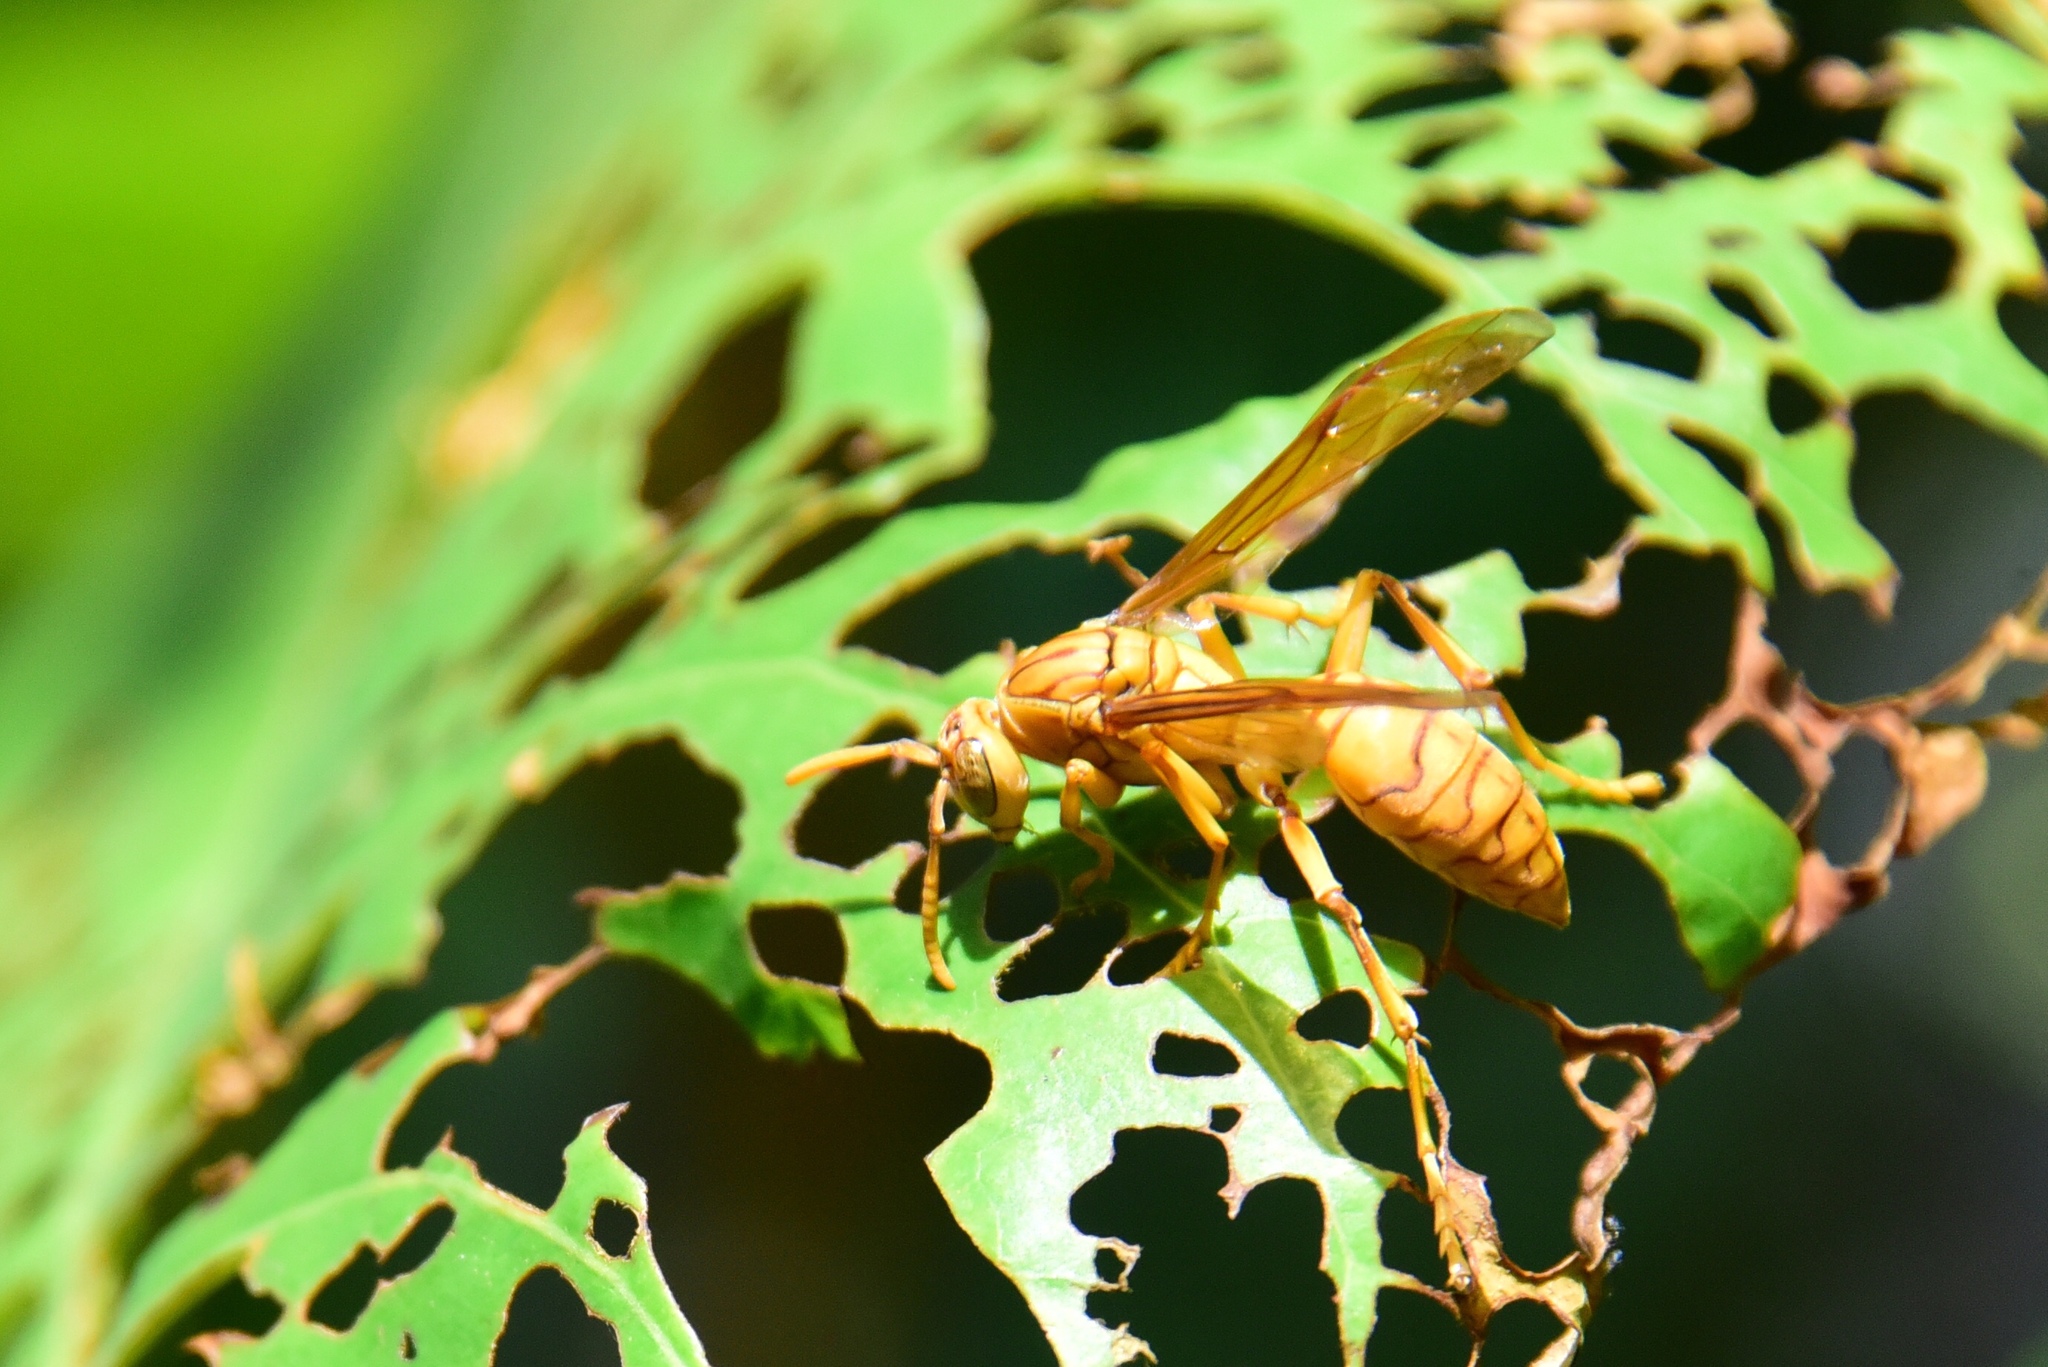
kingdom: Animalia
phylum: Arthropoda
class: Insecta
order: Hymenoptera
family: Eumenidae
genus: Polistes
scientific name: Polistes olivaceus
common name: Paper wasp
